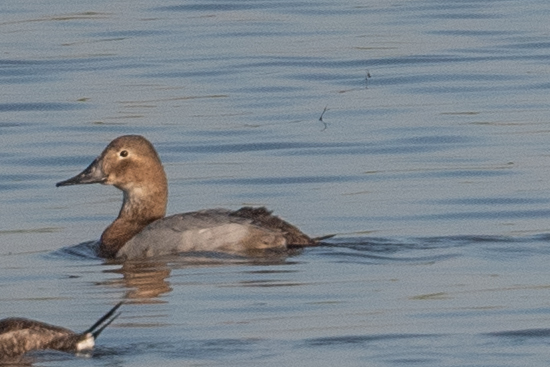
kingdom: Animalia
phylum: Chordata
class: Aves
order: Anseriformes
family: Anatidae
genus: Aythya
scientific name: Aythya valisineria
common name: Canvasback
